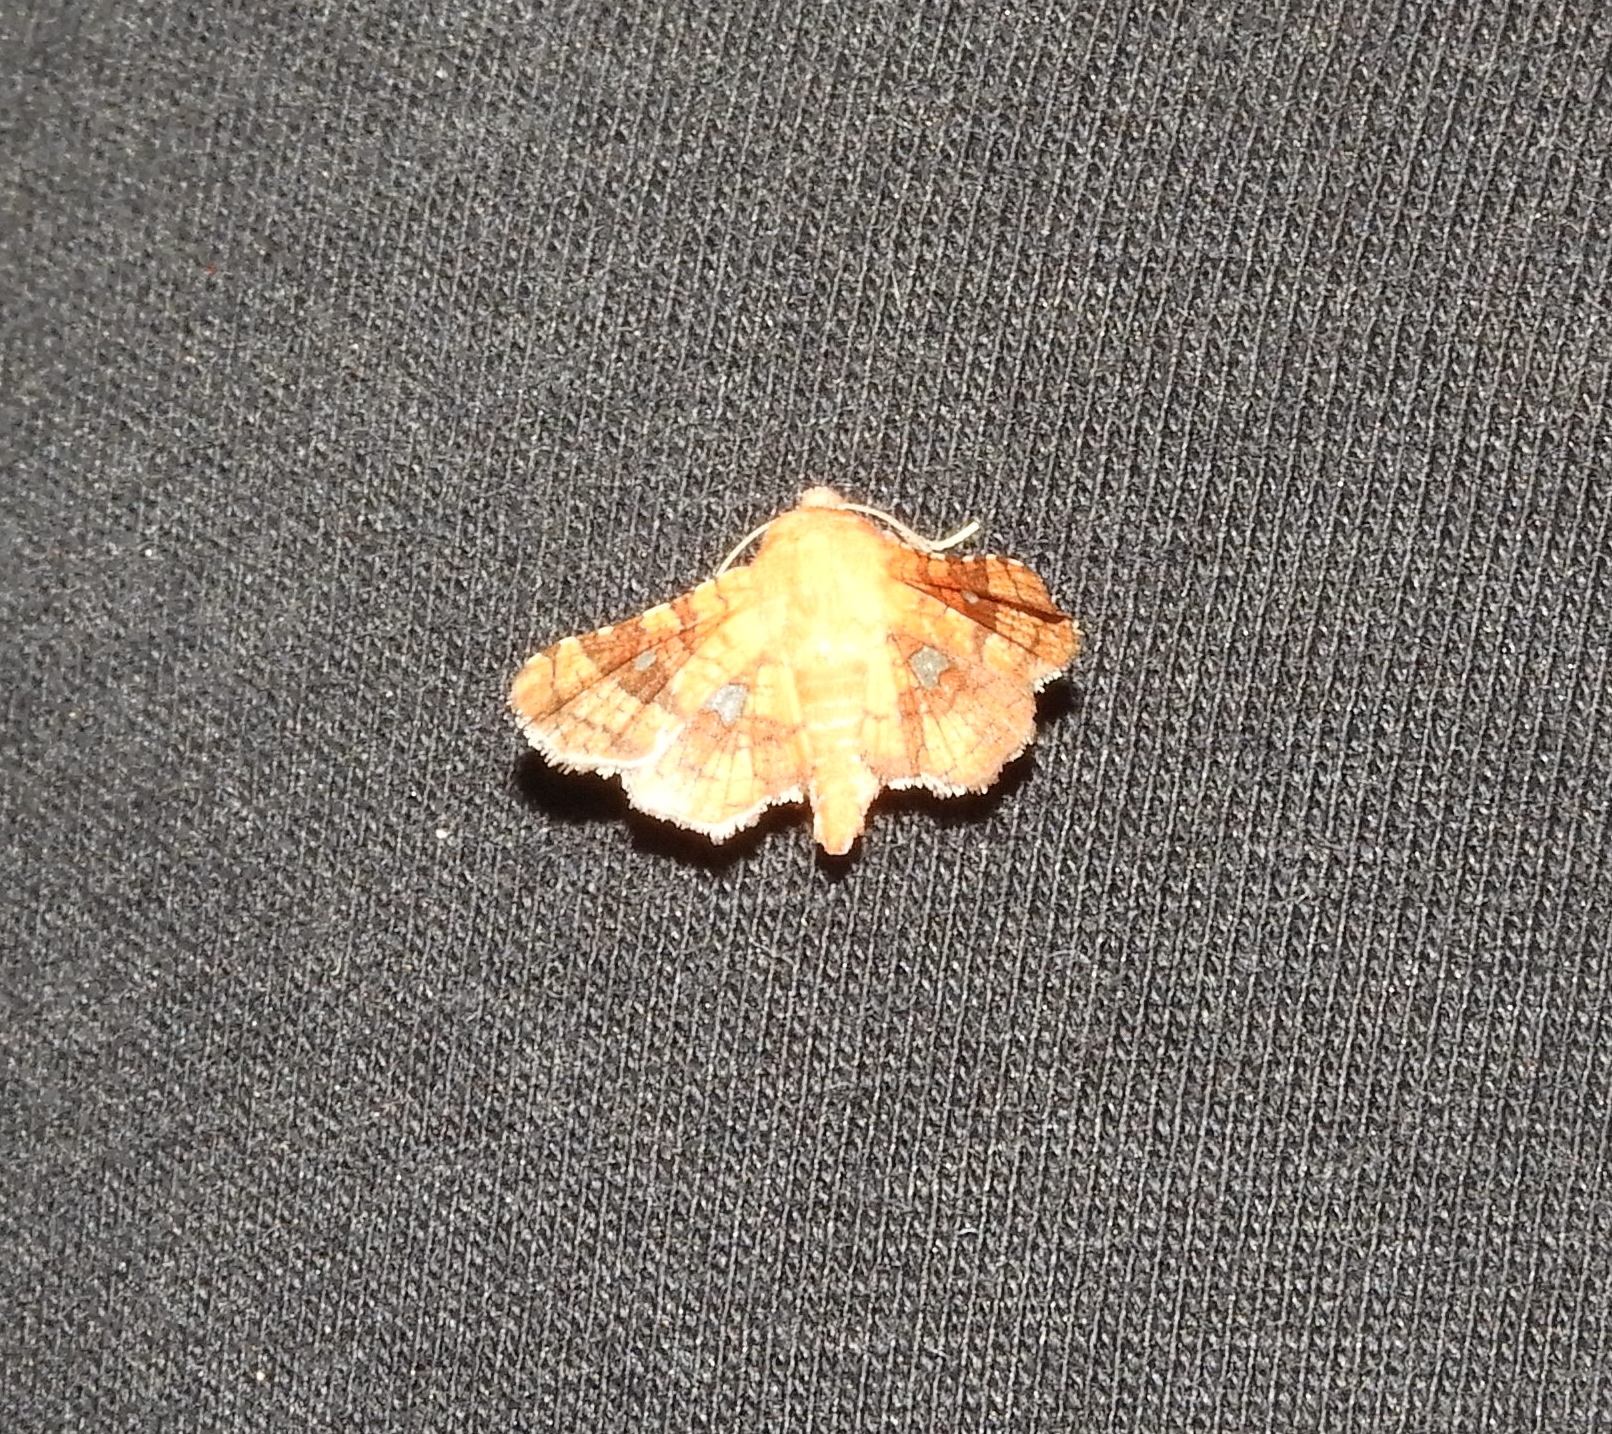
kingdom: Animalia
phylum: Arthropoda
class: Insecta
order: Lepidoptera
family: Thyrididae
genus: Dysodia
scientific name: Dysodia granulata
